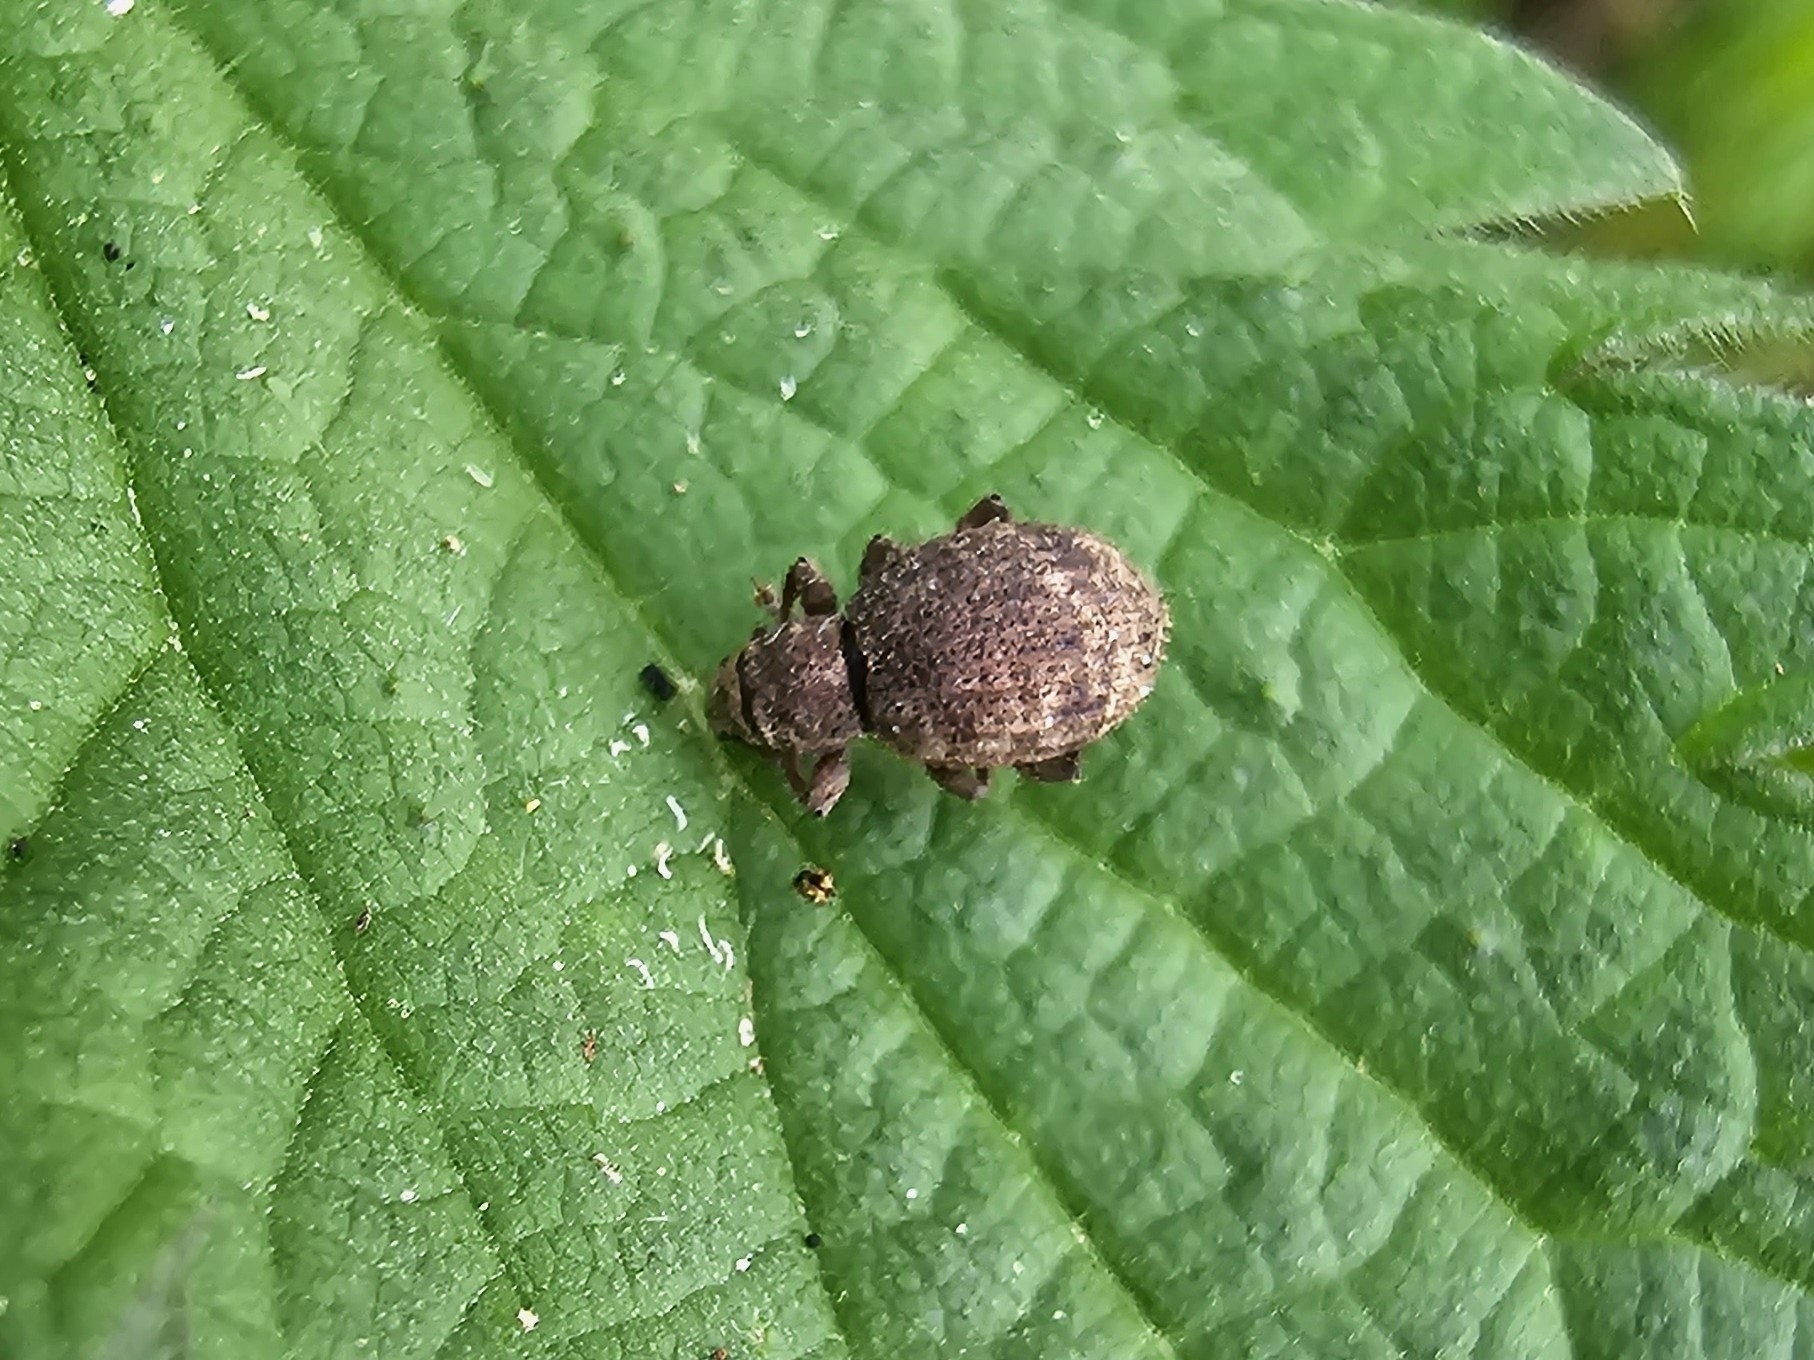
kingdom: Animalia
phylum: Arthropoda
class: Insecta
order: Coleoptera
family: Curculionidae
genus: Sciaphilus
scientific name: Sciaphilus asperatus
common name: Weevil
